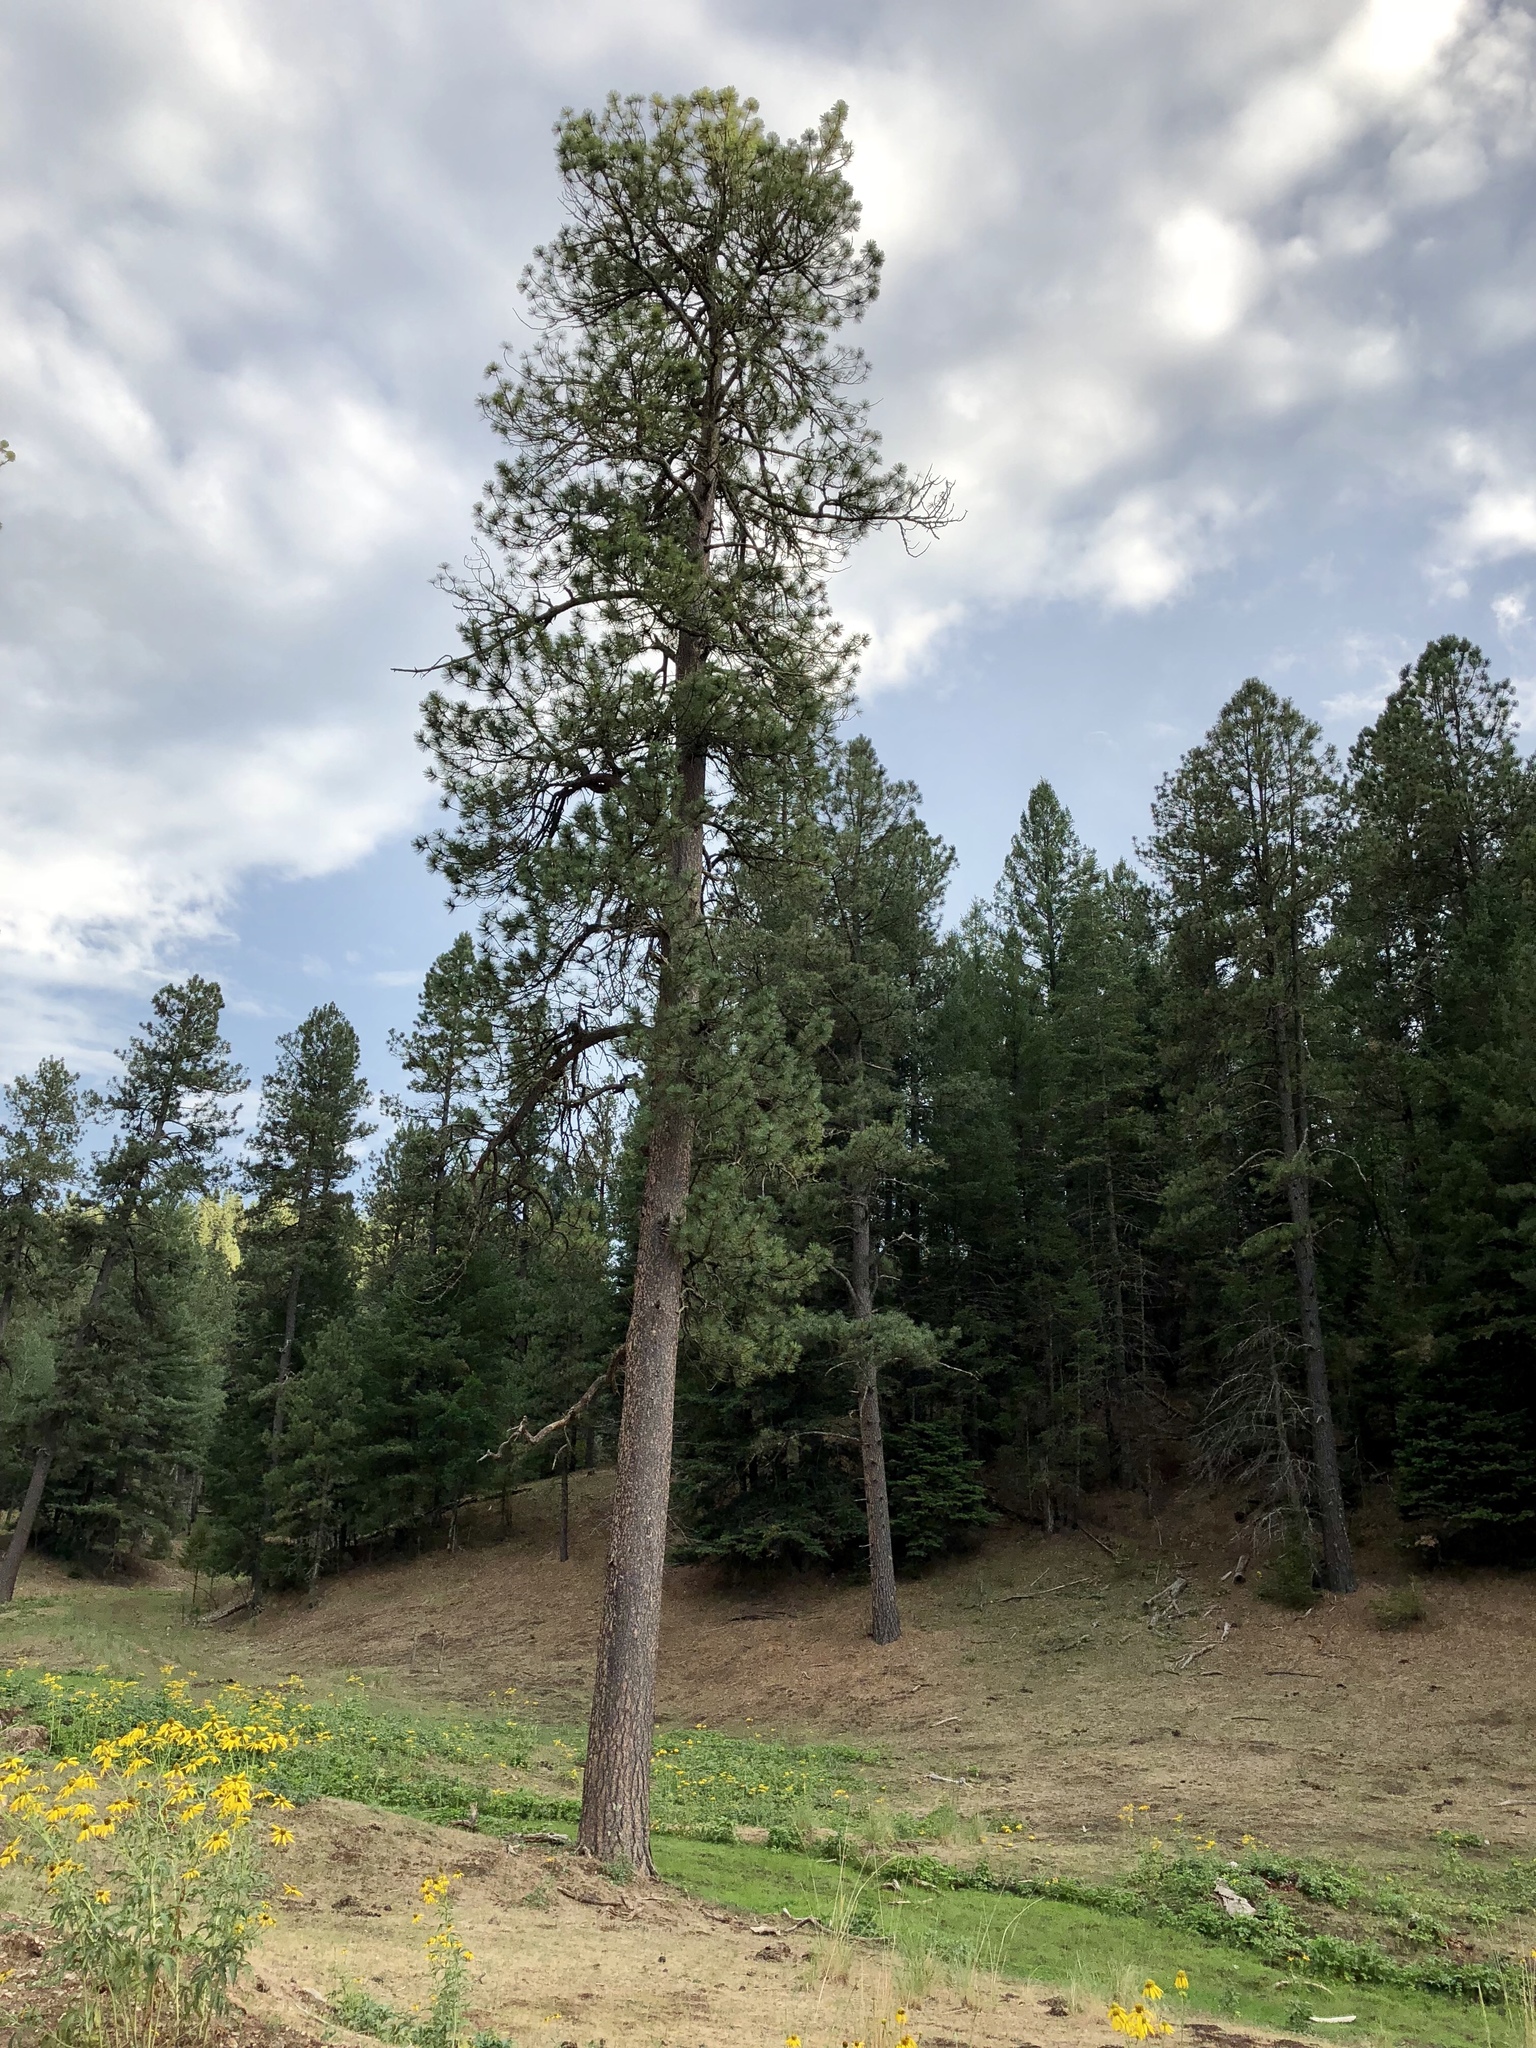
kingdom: Plantae
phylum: Tracheophyta
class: Pinopsida
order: Pinales
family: Pinaceae
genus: Pinus
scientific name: Pinus ponderosa
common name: Western yellow-pine
